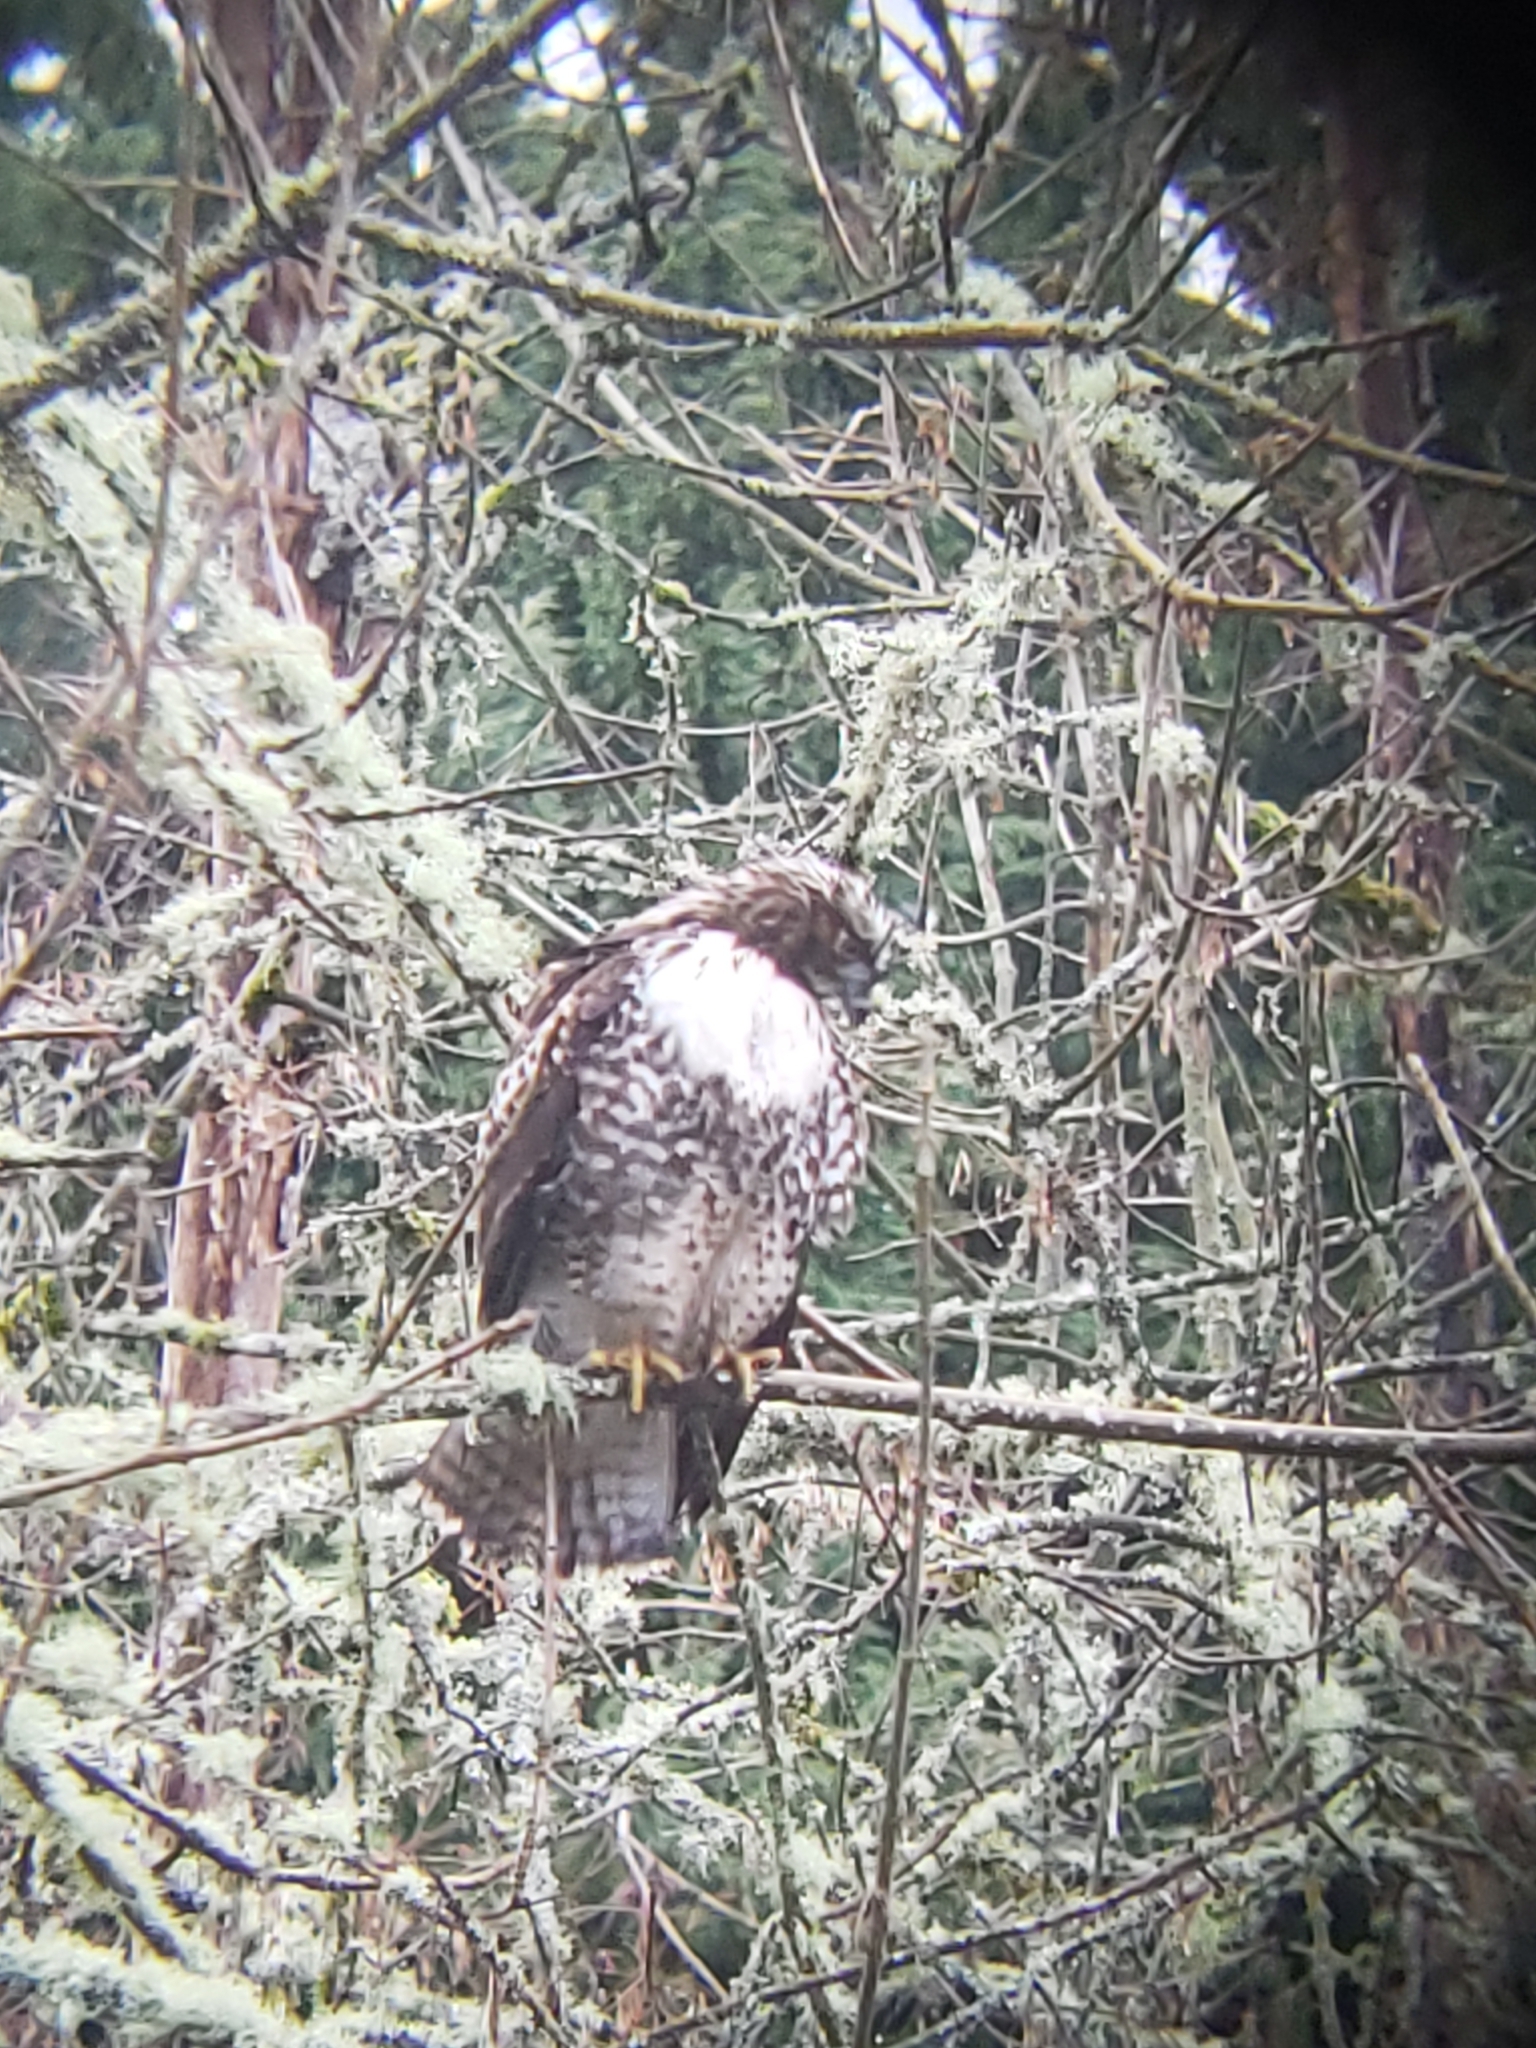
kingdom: Animalia
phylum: Chordata
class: Aves
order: Accipitriformes
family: Accipitridae
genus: Buteo
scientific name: Buteo jamaicensis
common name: Red-tailed hawk
